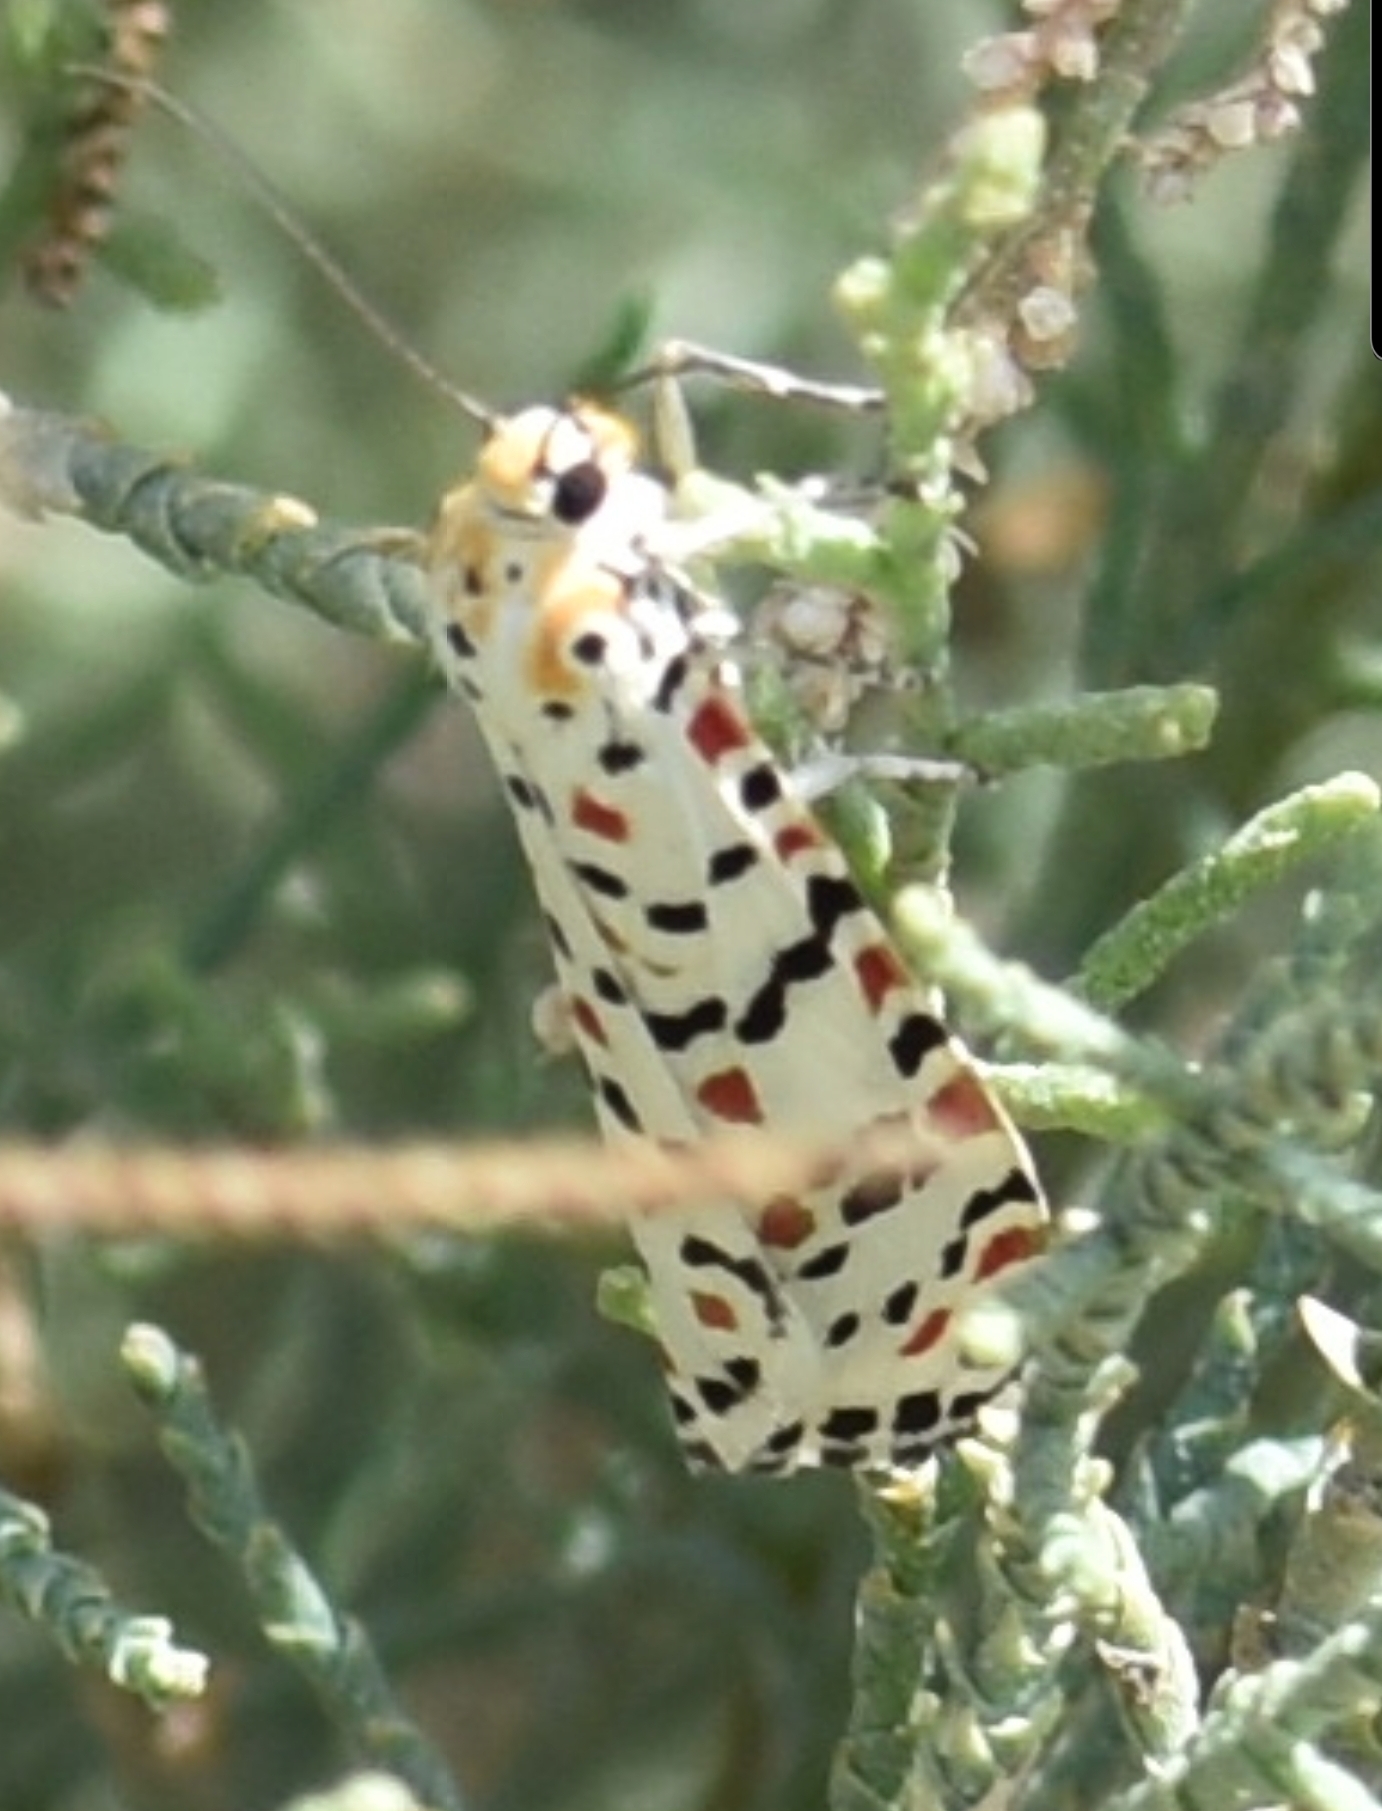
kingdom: Animalia
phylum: Arthropoda
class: Insecta
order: Lepidoptera
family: Erebidae
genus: Utetheisa
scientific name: Utetheisa pulchella
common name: Crimson speckled
